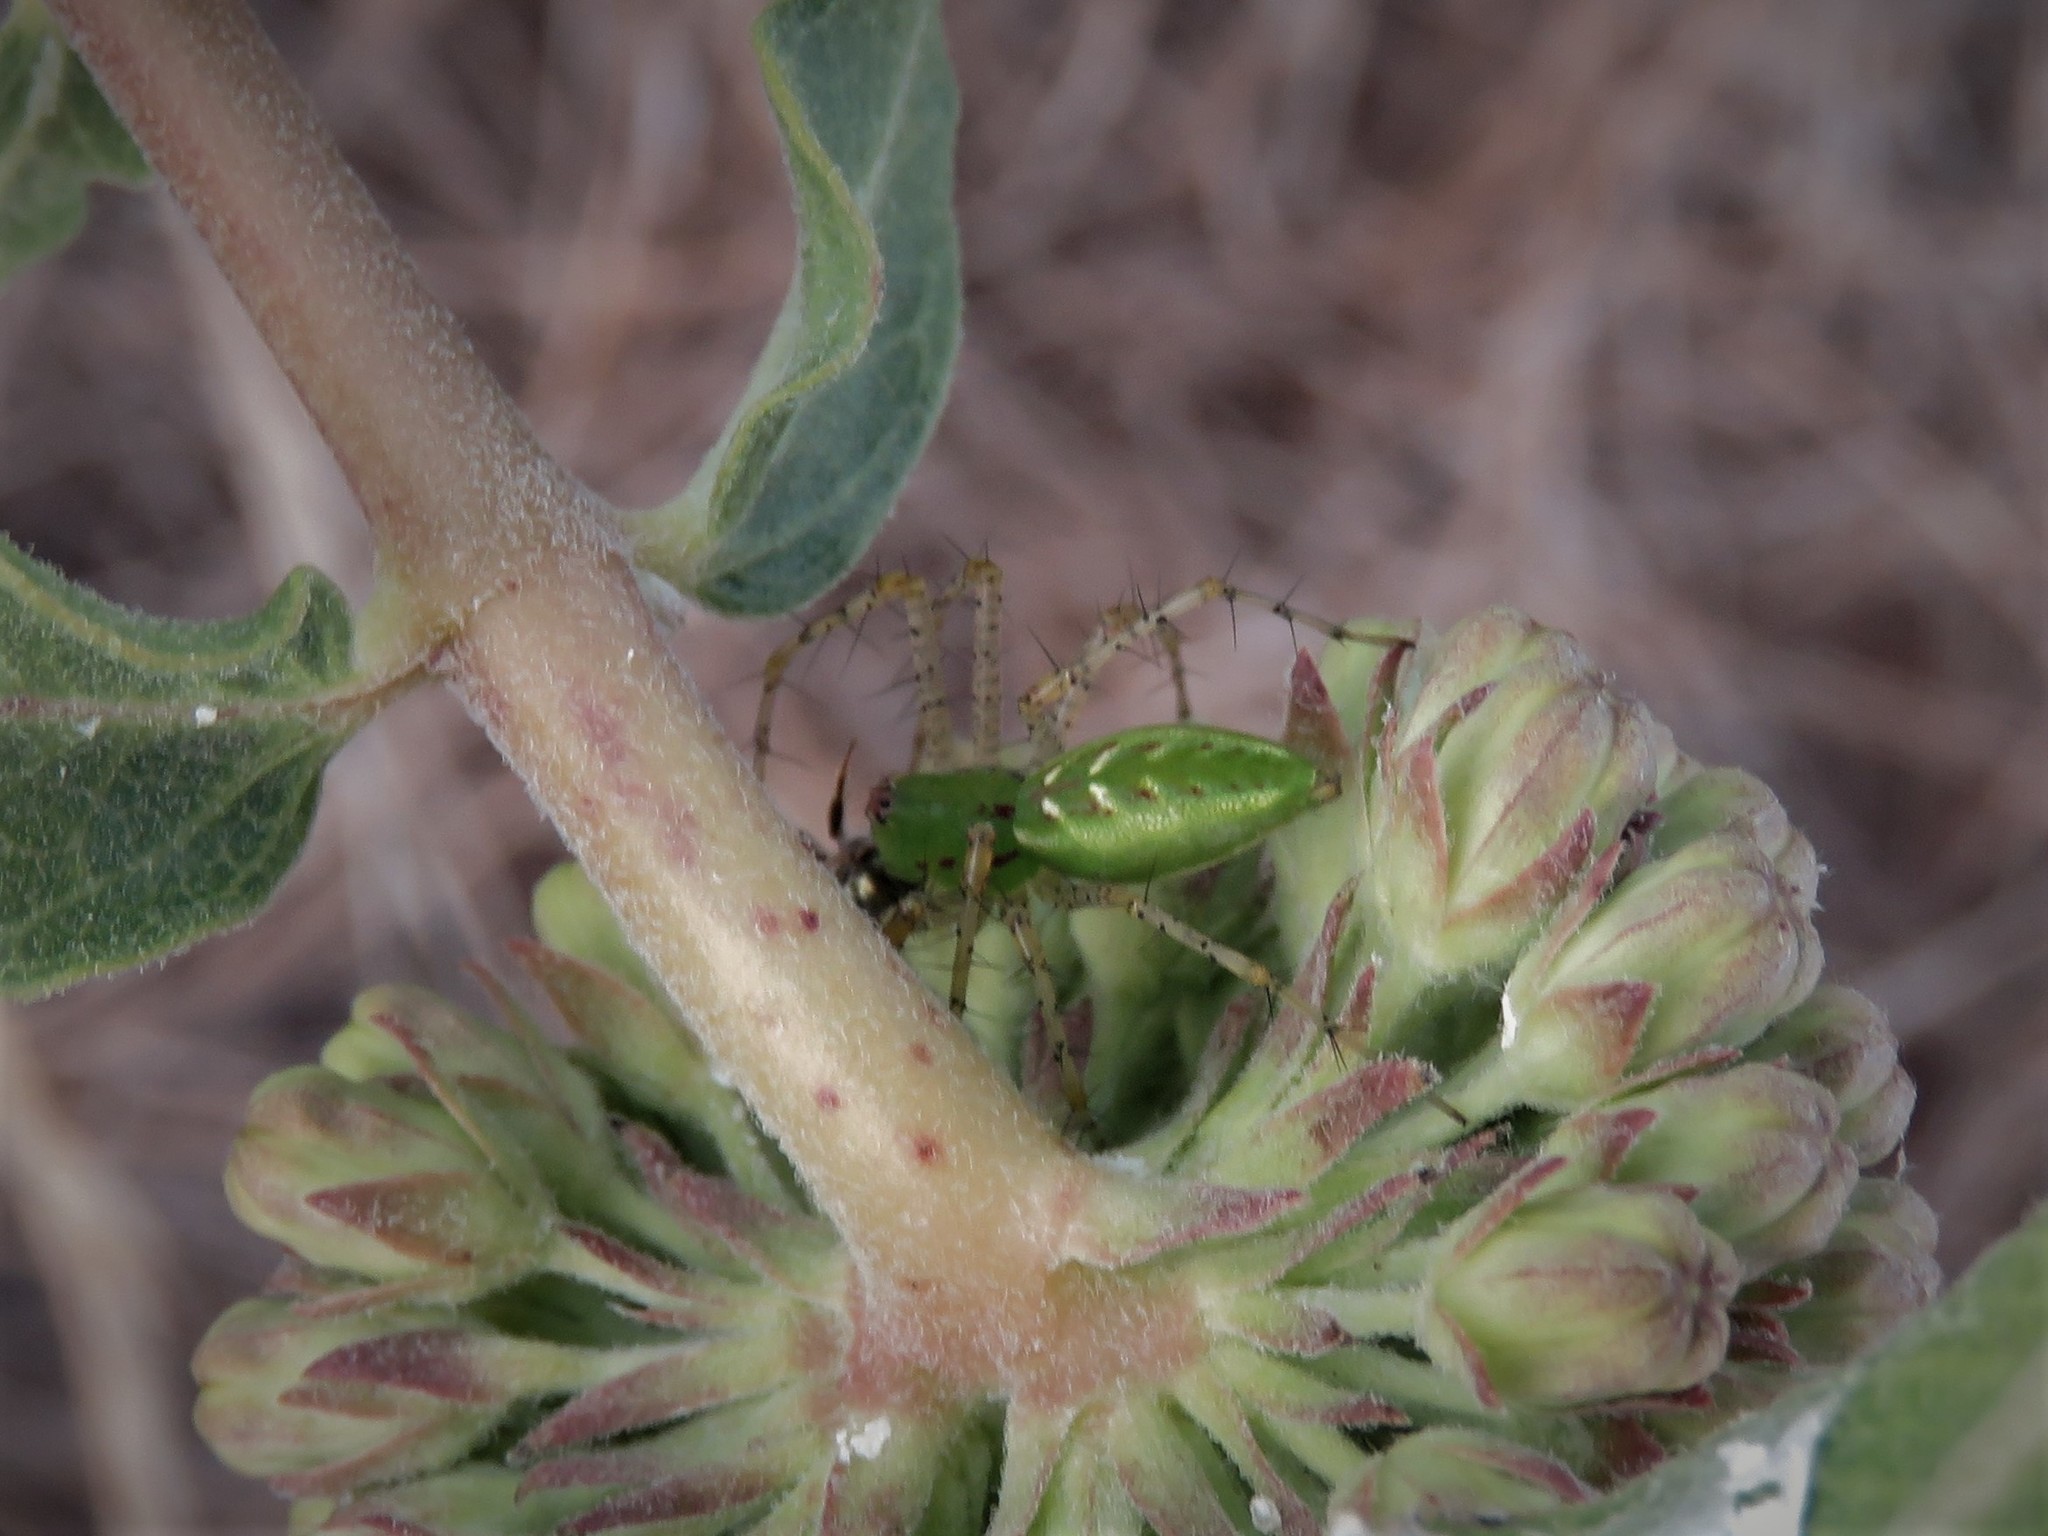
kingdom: Animalia
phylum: Arthropoda
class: Arachnida
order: Araneae
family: Oxyopidae
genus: Peucetia
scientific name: Peucetia viridans
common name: Lynx spiders
